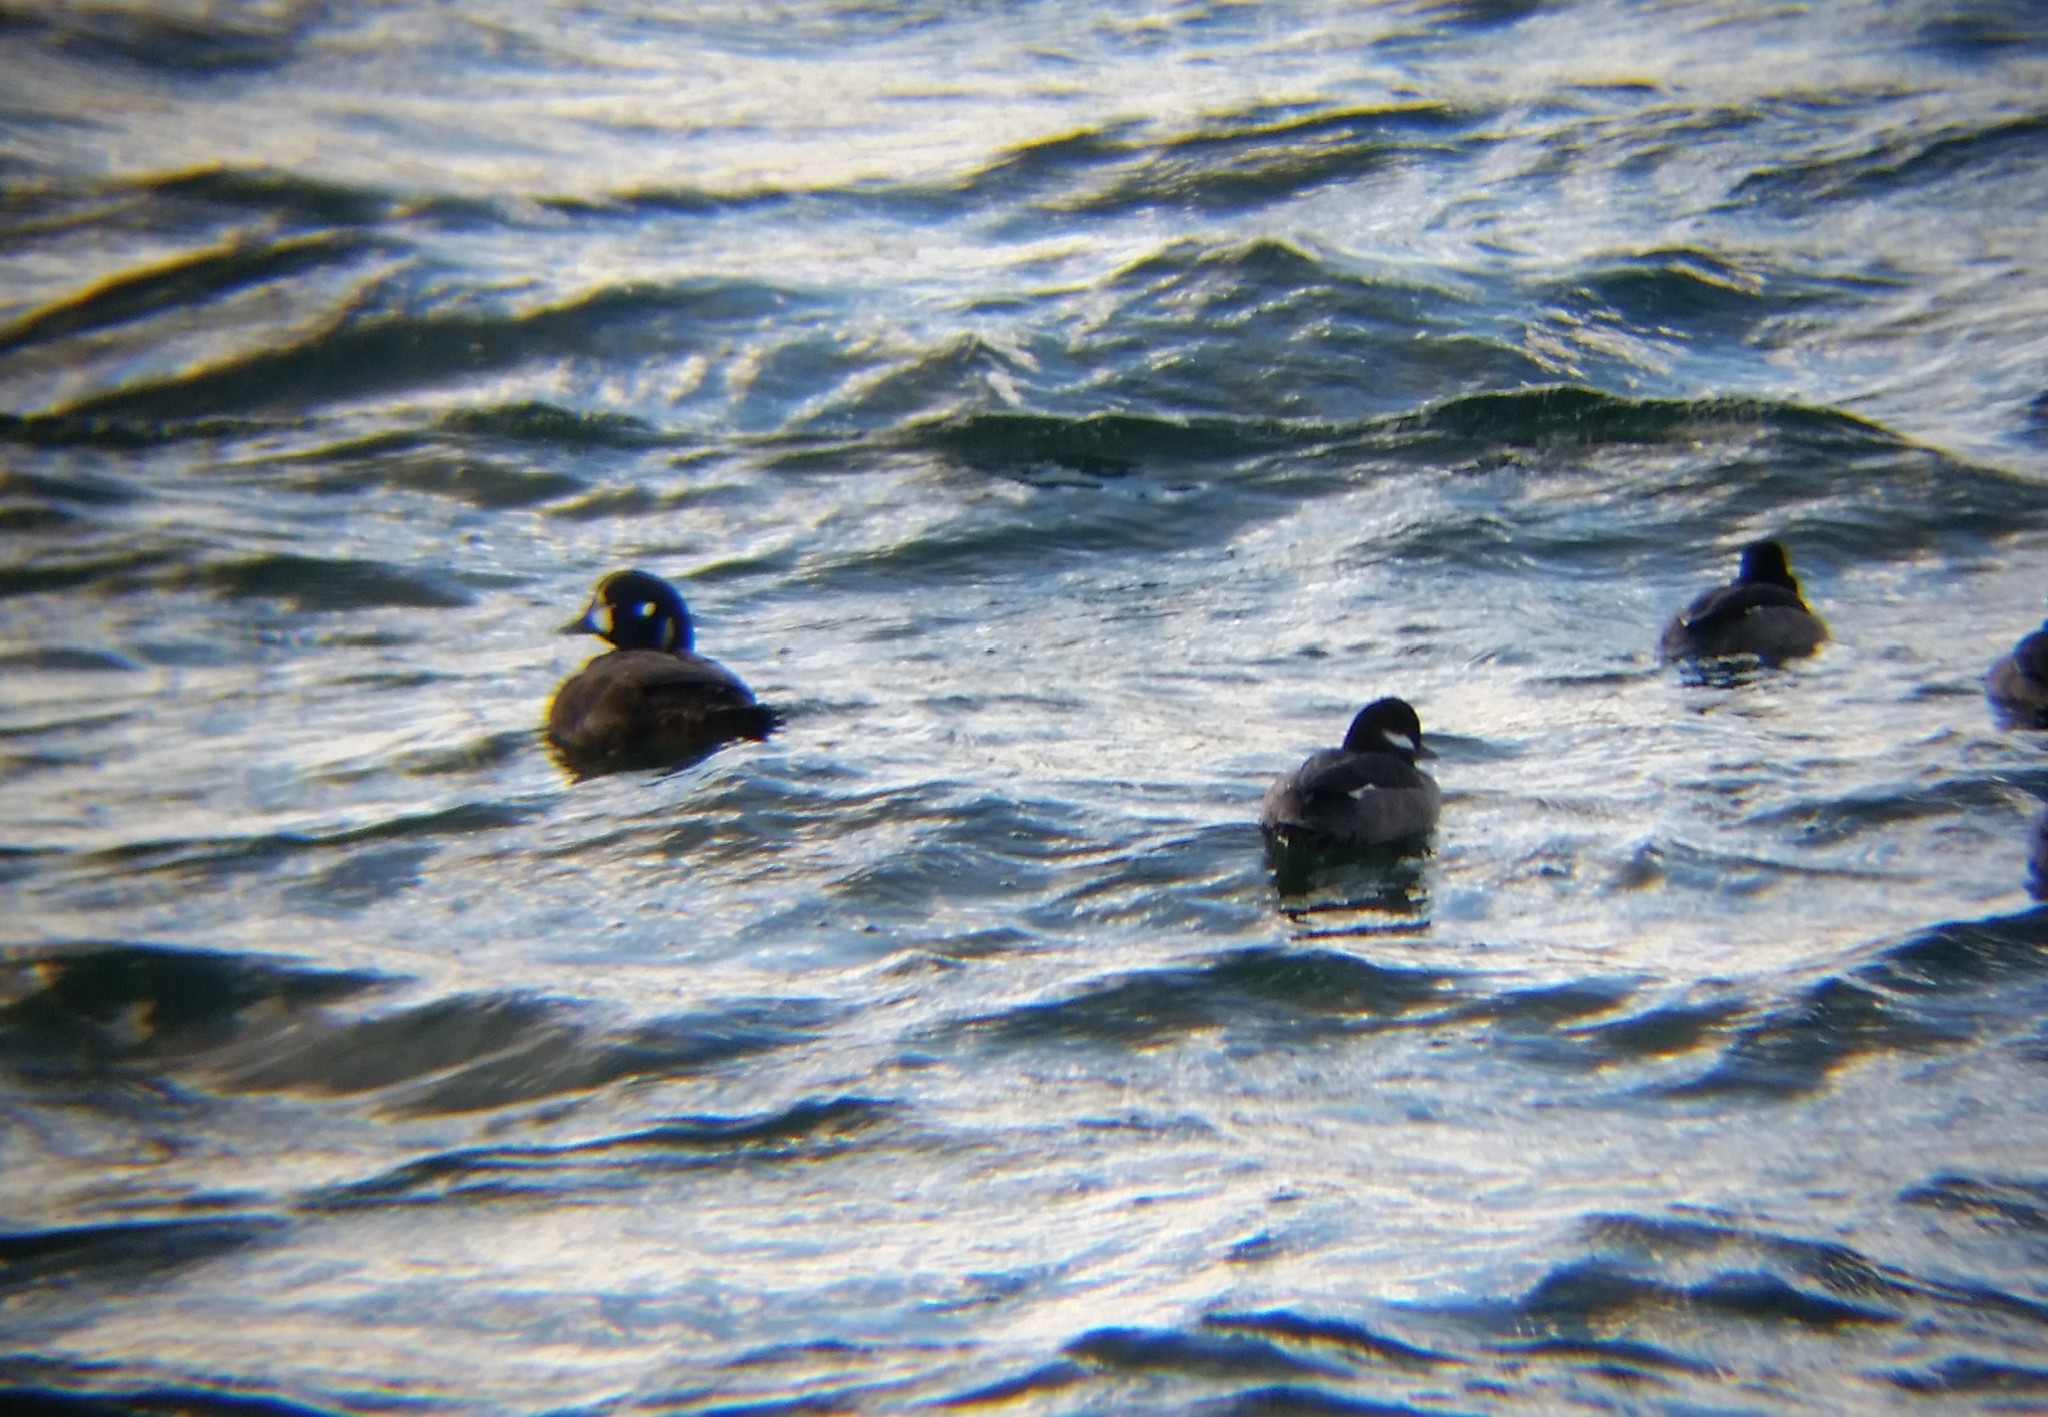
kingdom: Animalia
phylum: Chordata
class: Aves
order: Anseriformes
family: Anatidae
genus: Histrionicus
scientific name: Histrionicus histrionicus
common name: Harlequin duck
